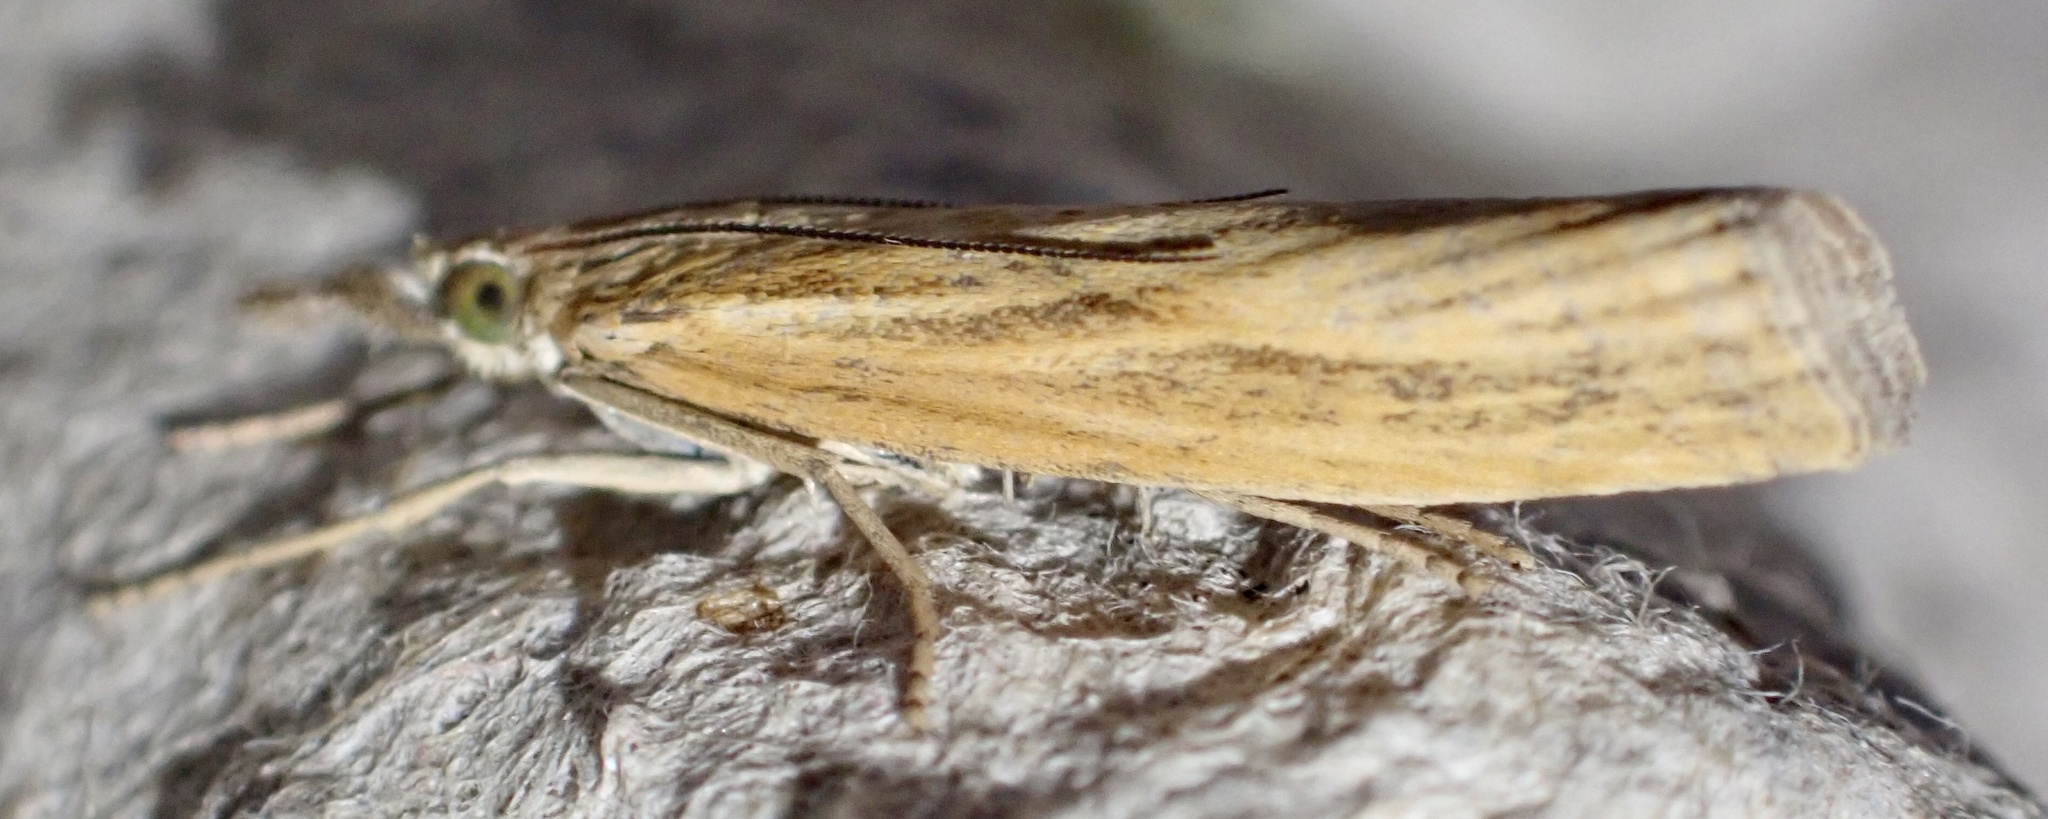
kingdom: Animalia
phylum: Arthropoda
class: Insecta
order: Lepidoptera
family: Crambidae
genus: Agriphila
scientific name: Agriphila tristellus
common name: Common grass-veneer
